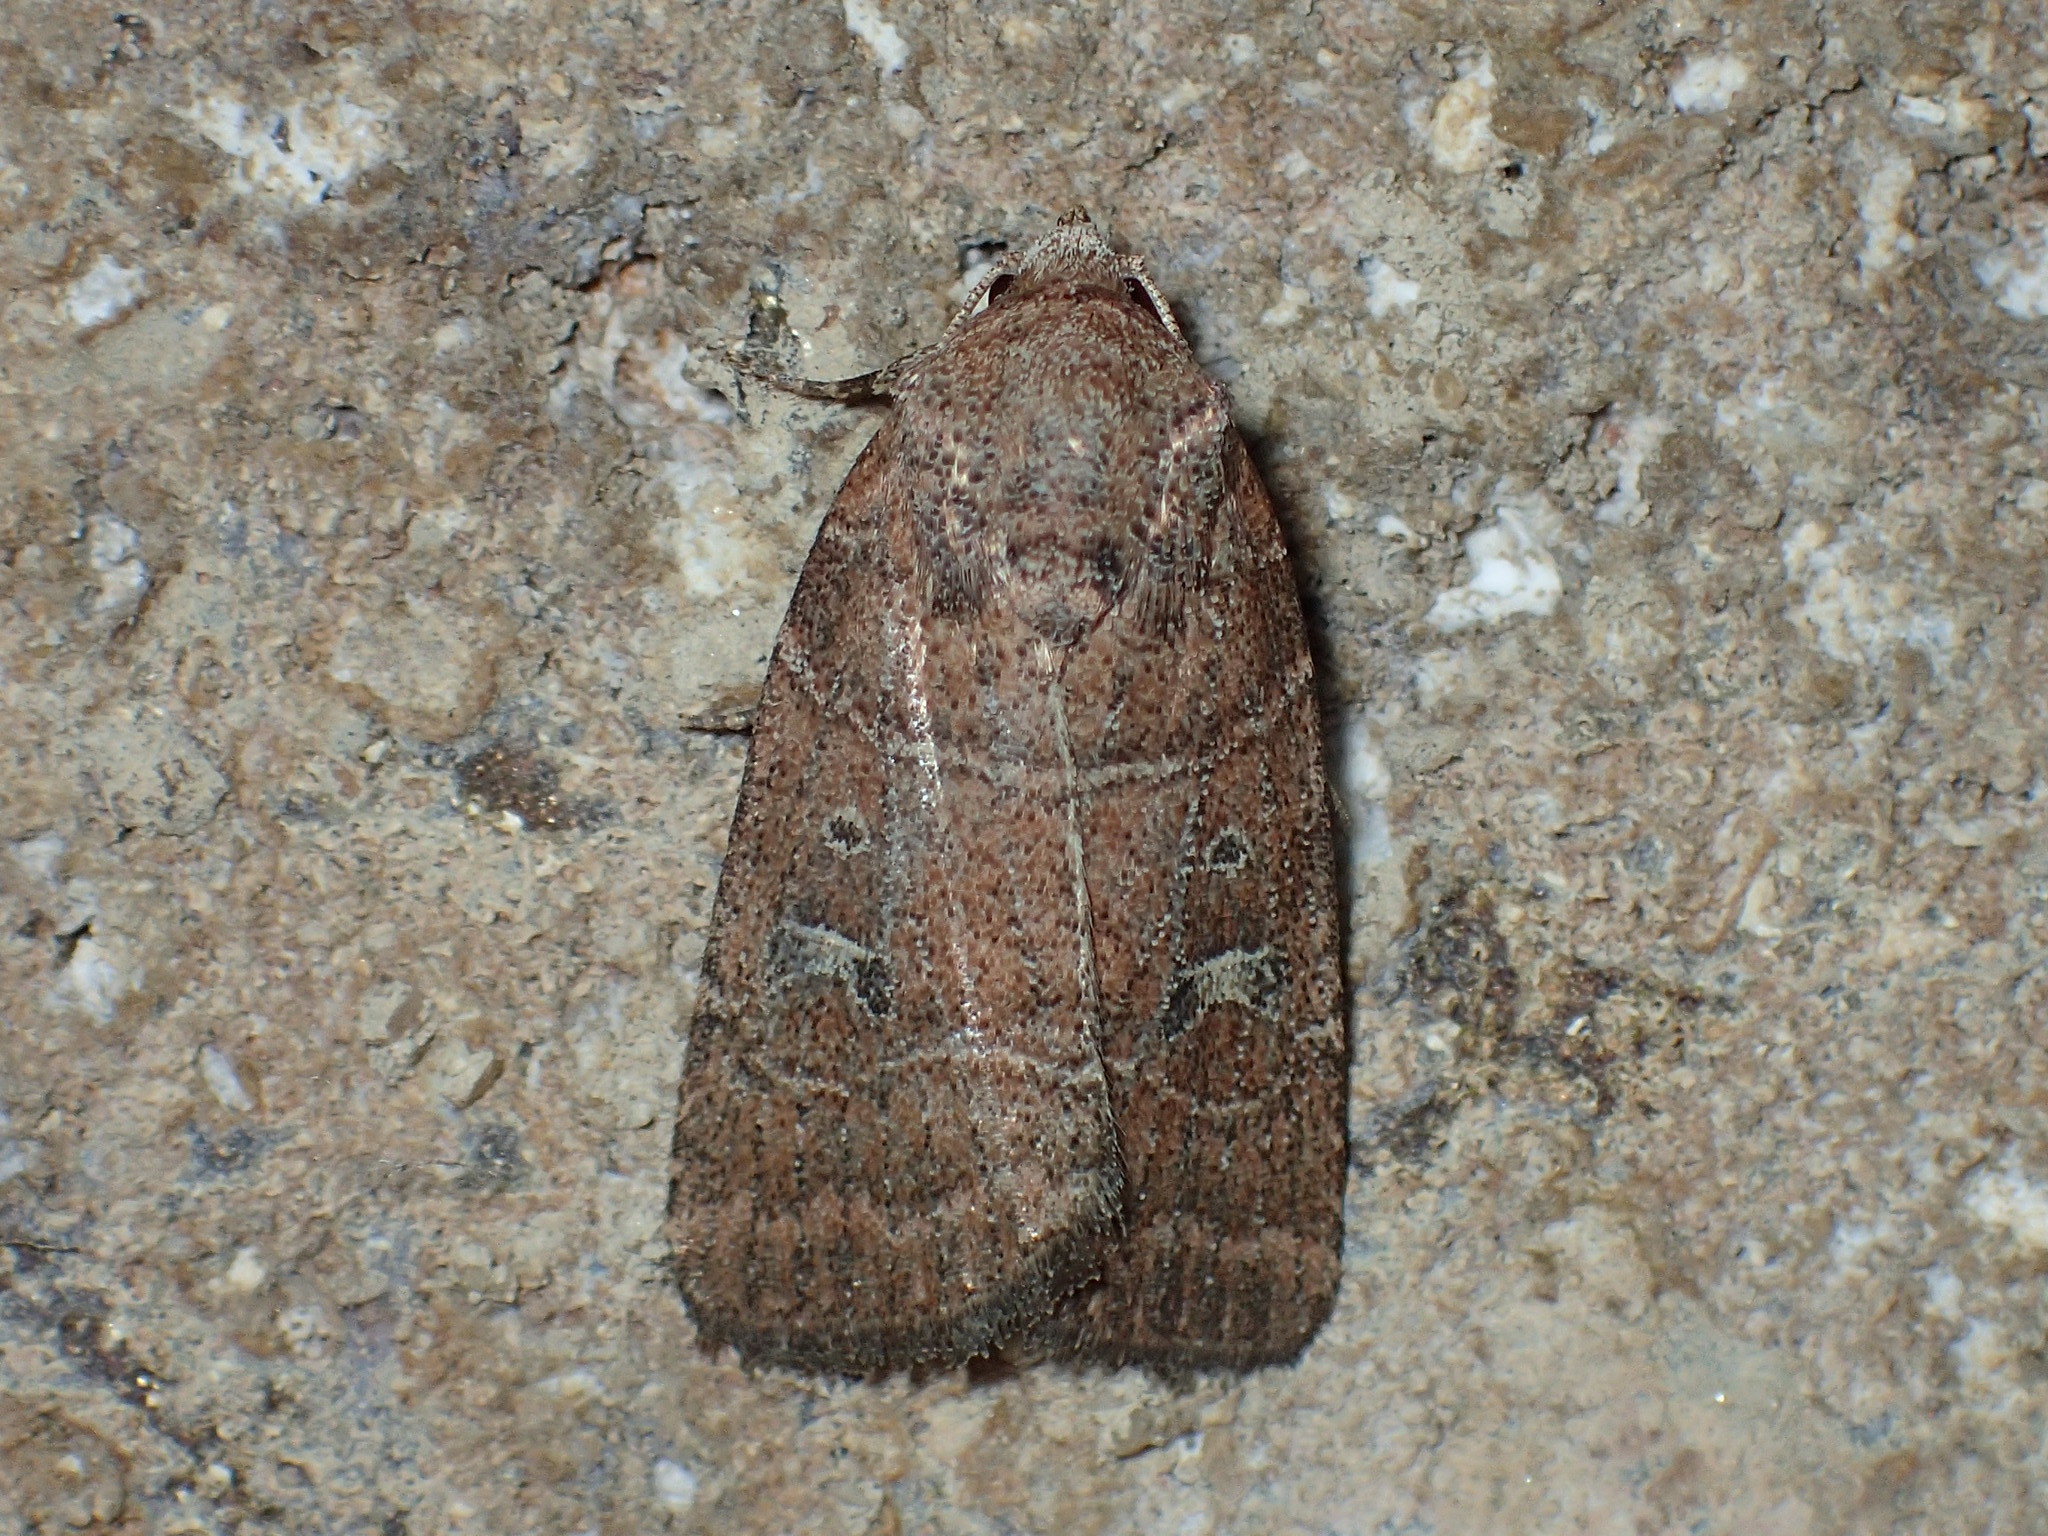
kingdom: Animalia
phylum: Arthropoda
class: Insecta
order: Lepidoptera
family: Noctuidae
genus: Elaphria
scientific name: Elaphria grata
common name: Grateful midget moth
